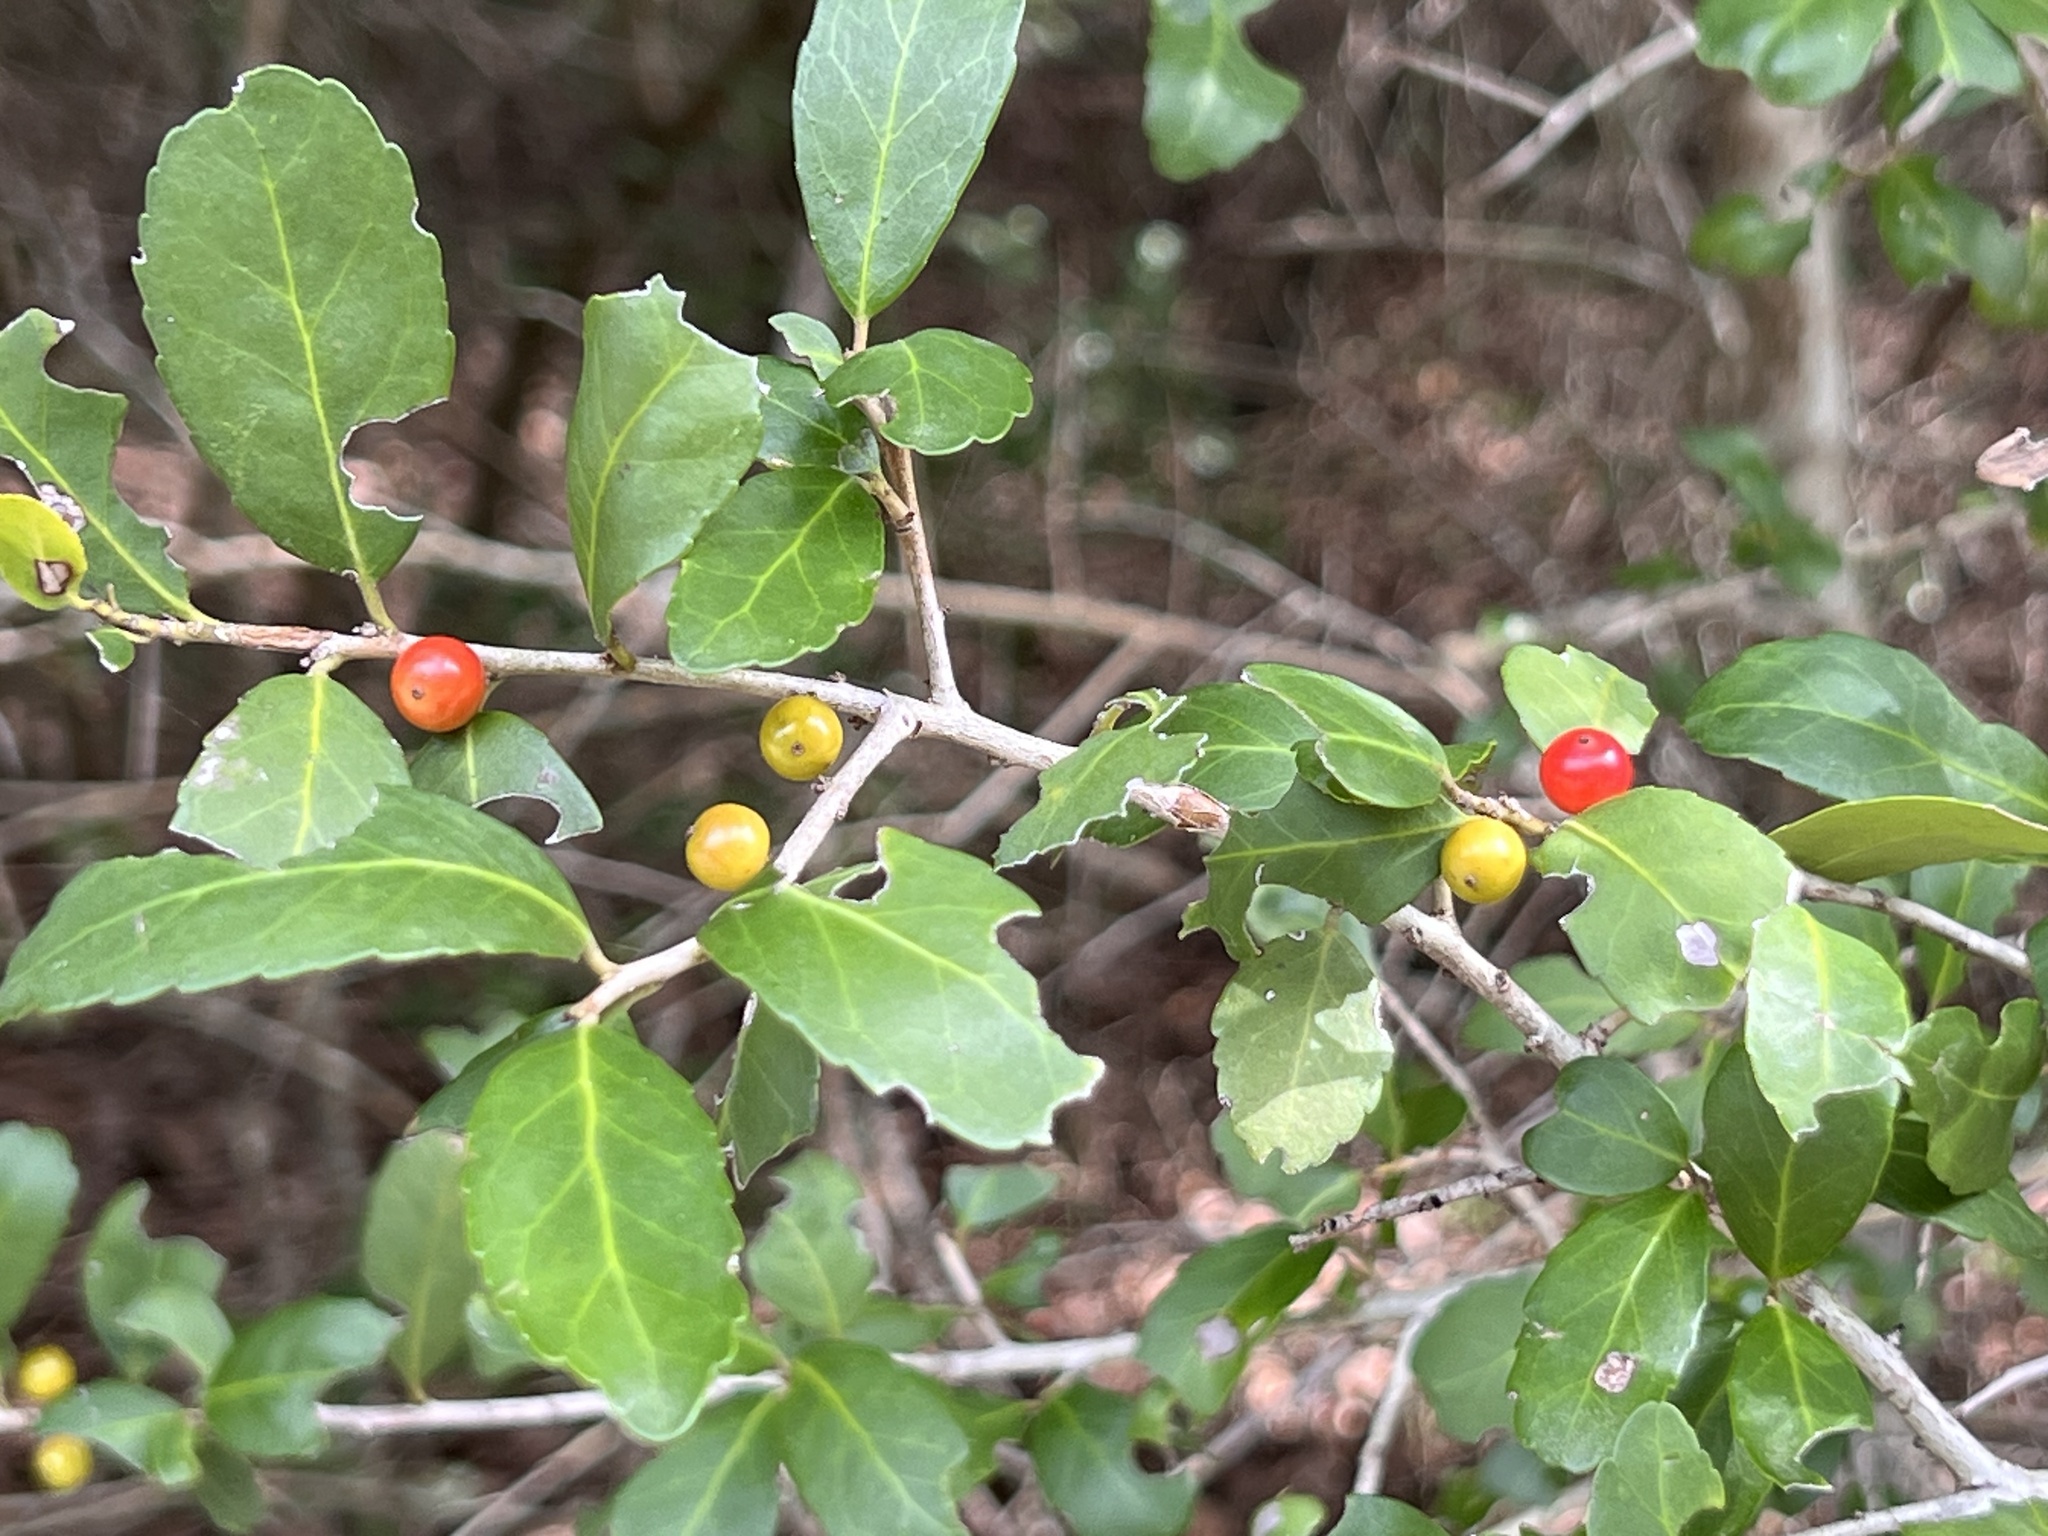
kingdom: Plantae
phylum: Tracheophyta
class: Magnoliopsida
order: Aquifoliales
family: Aquifoliaceae
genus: Ilex
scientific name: Ilex vomitoria
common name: Yaupon holly
